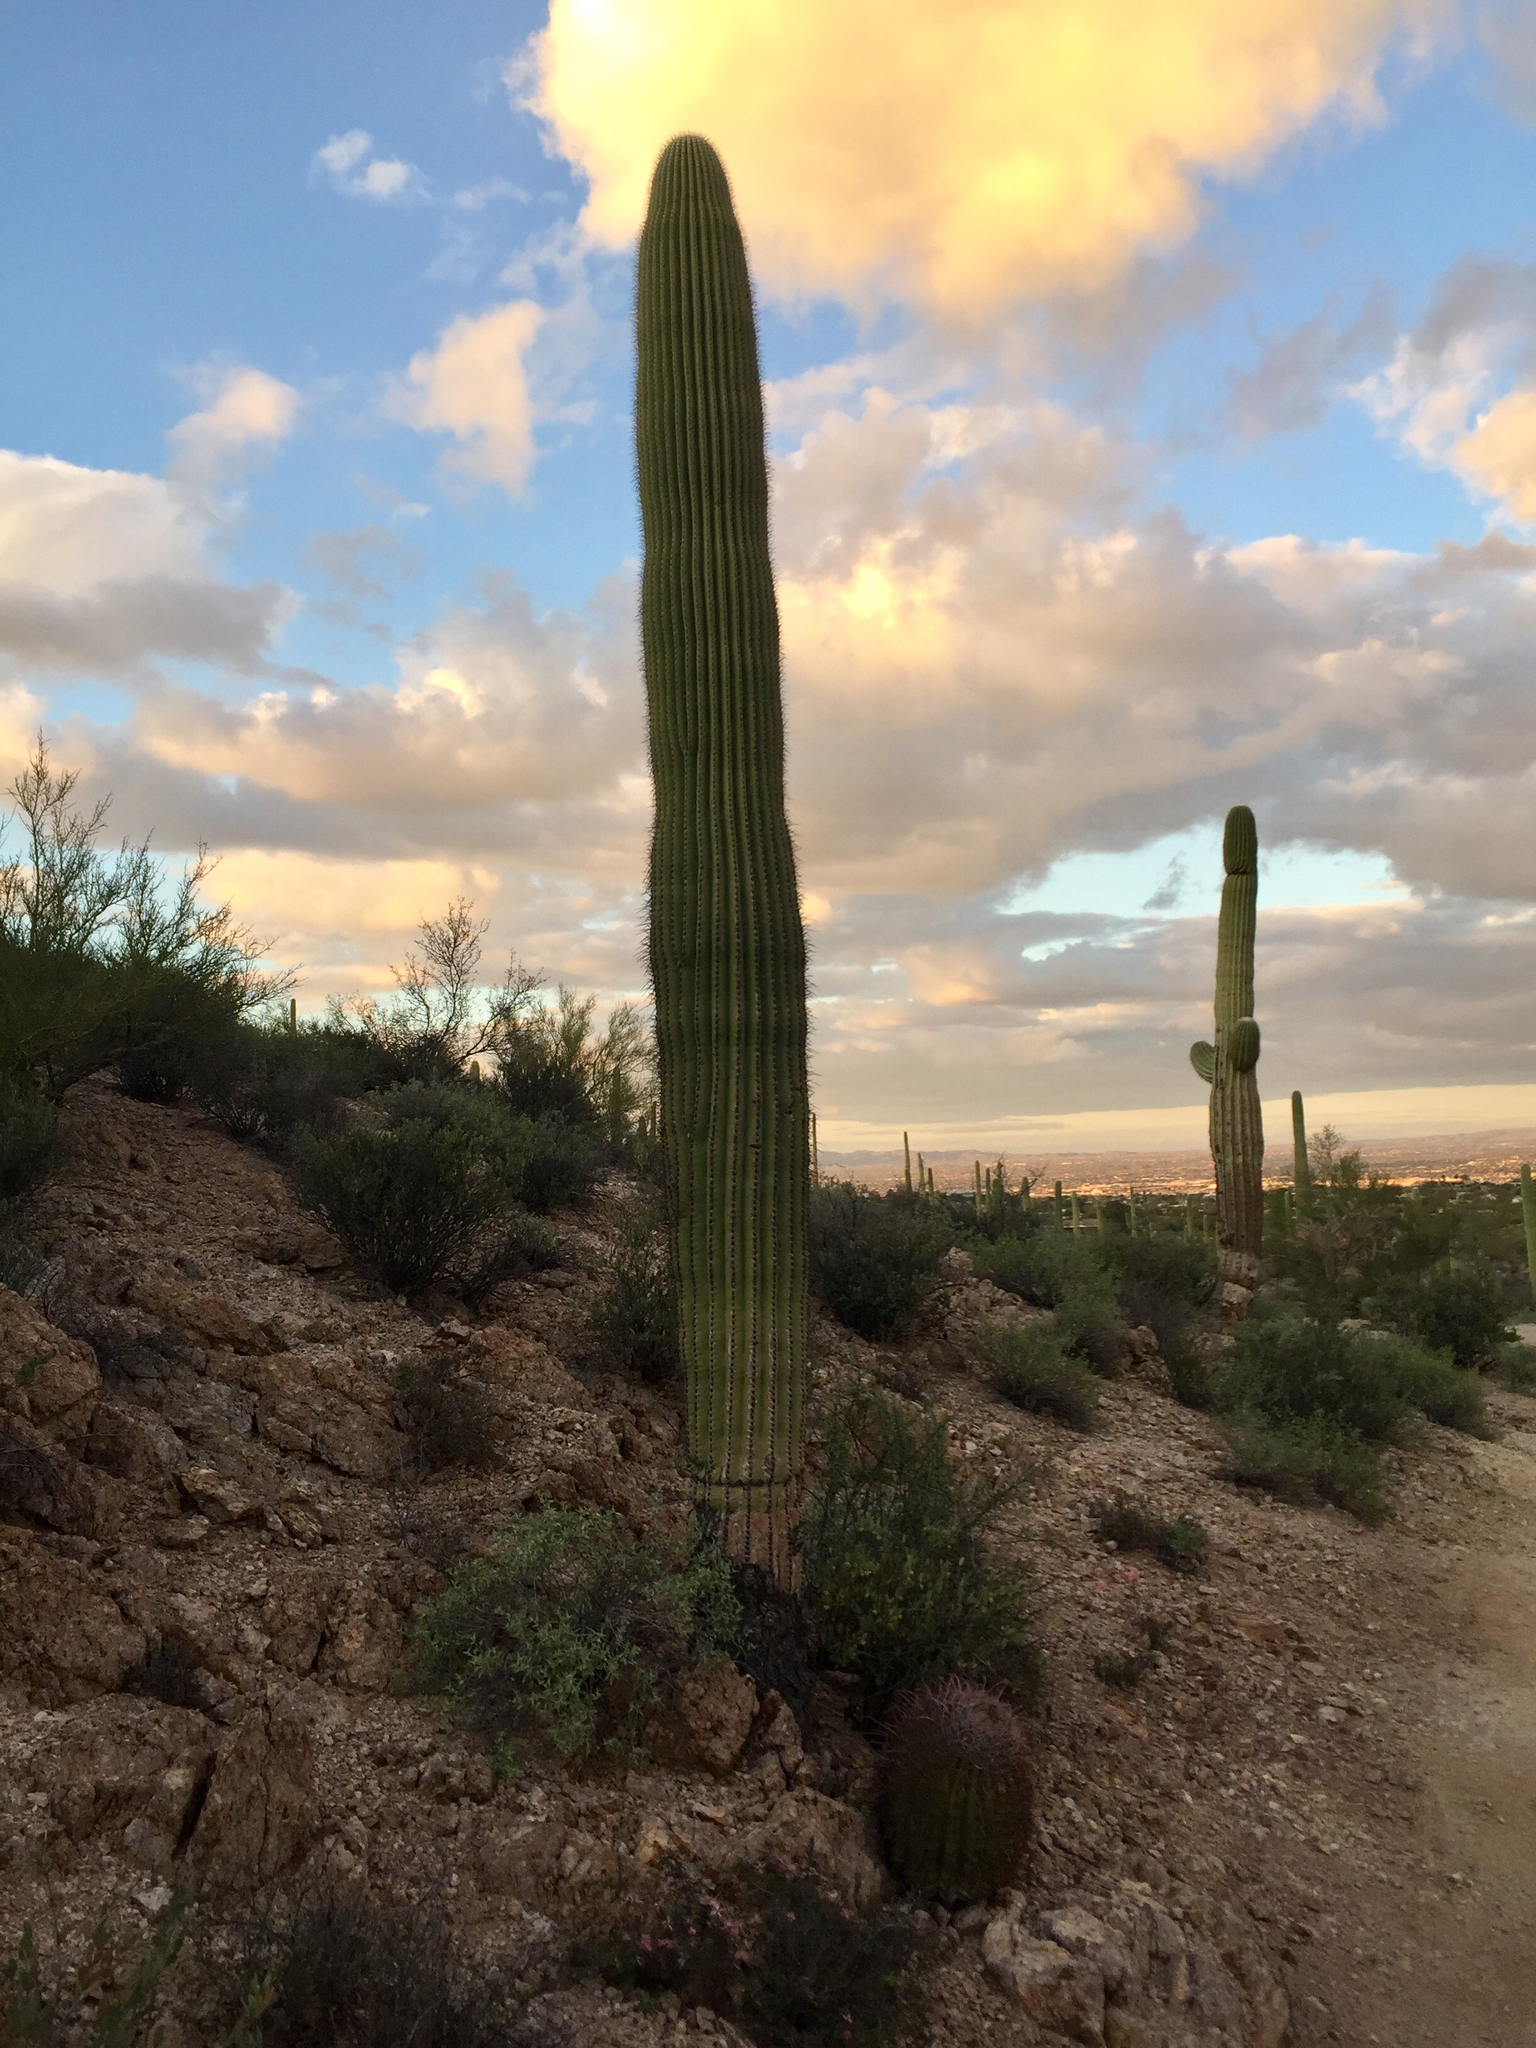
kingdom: Plantae
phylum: Tracheophyta
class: Magnoliopsida
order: Caryophyllales
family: Cactaceae
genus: Carnegiea
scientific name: Carnegiea gigantea
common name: Saguaro
